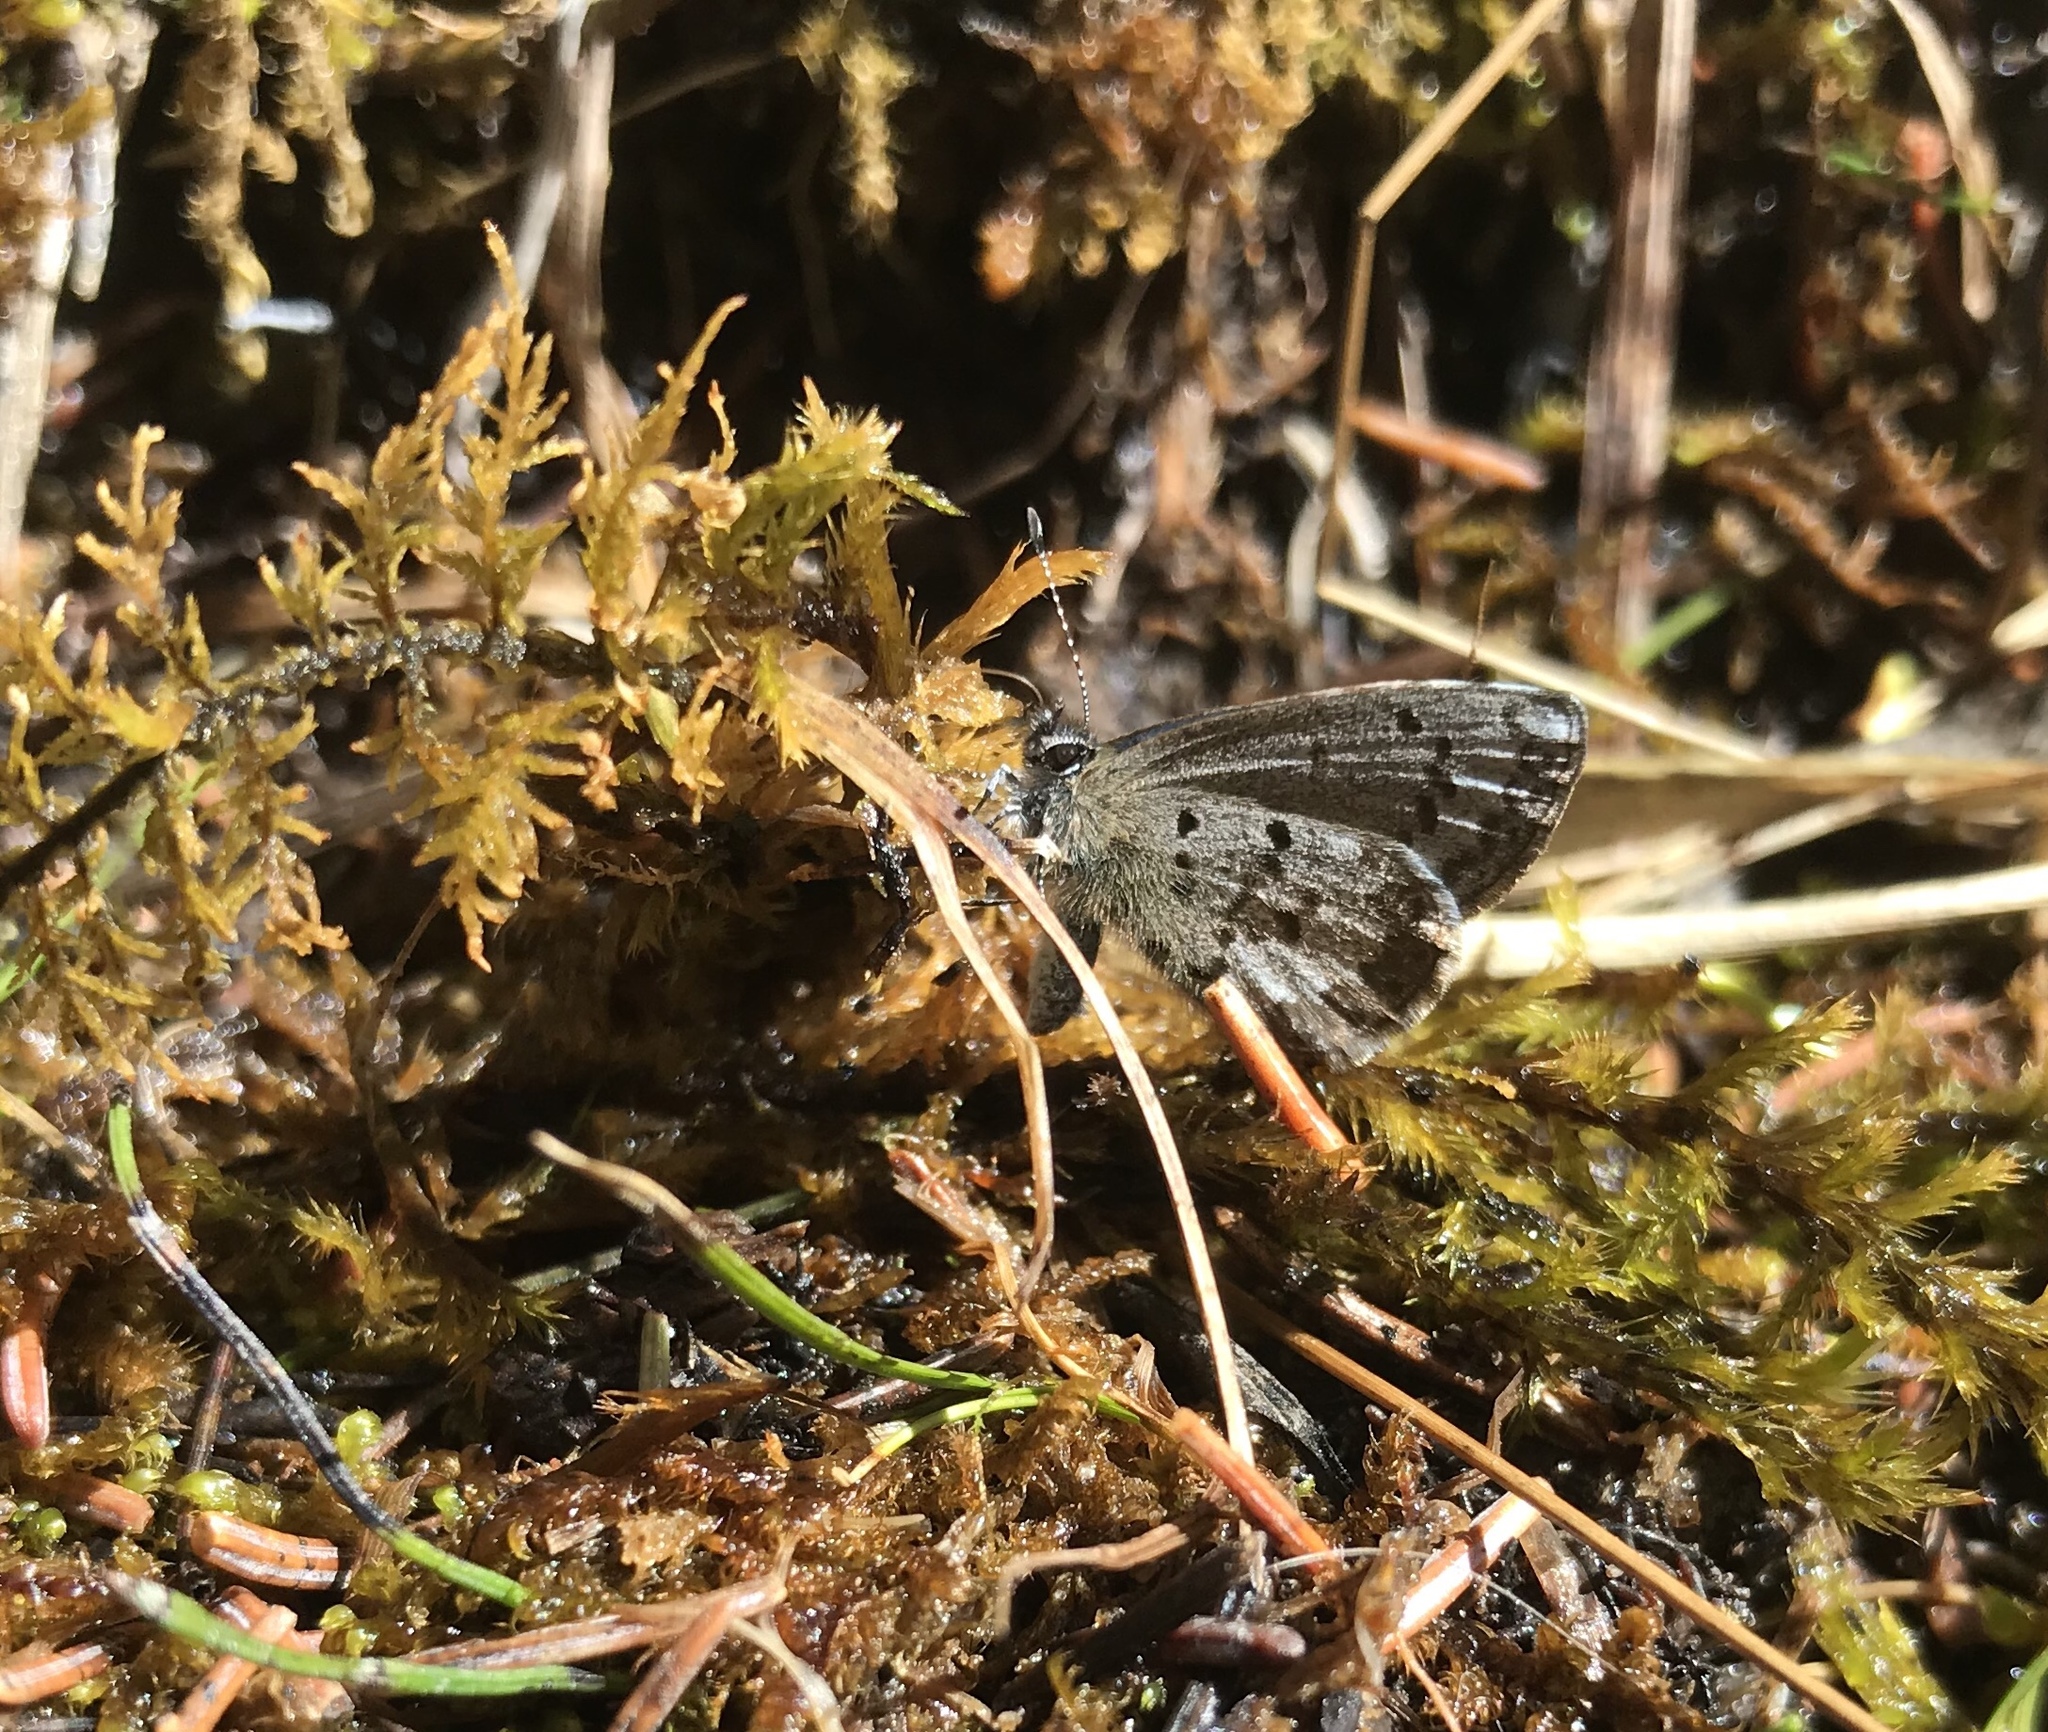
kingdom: Animalia
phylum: Arthropoda
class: Insecta
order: Lepidoptera
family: Lycaenidae
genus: Celastrina
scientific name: Celastrina lucia
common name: Lucia azure
